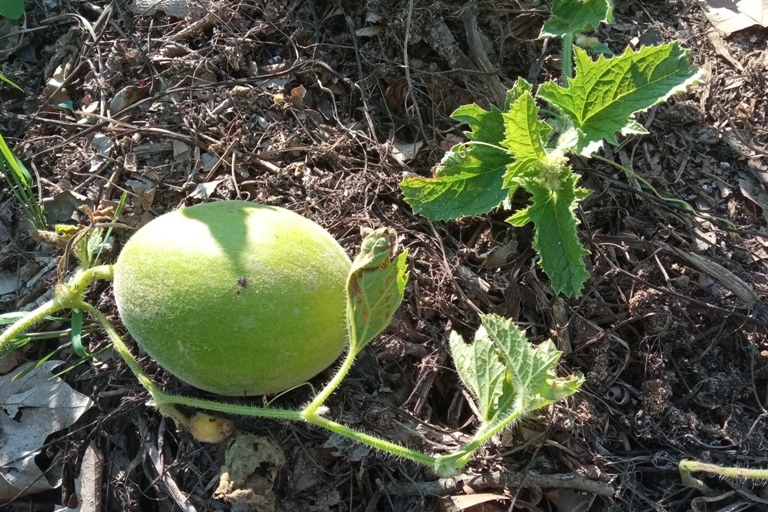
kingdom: Plantae
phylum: Tracheophyta
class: Magnoliopsida
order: Cucurbitales
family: Cucurbitaceae
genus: Cucumis
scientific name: Cucumis melo
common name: Melon
